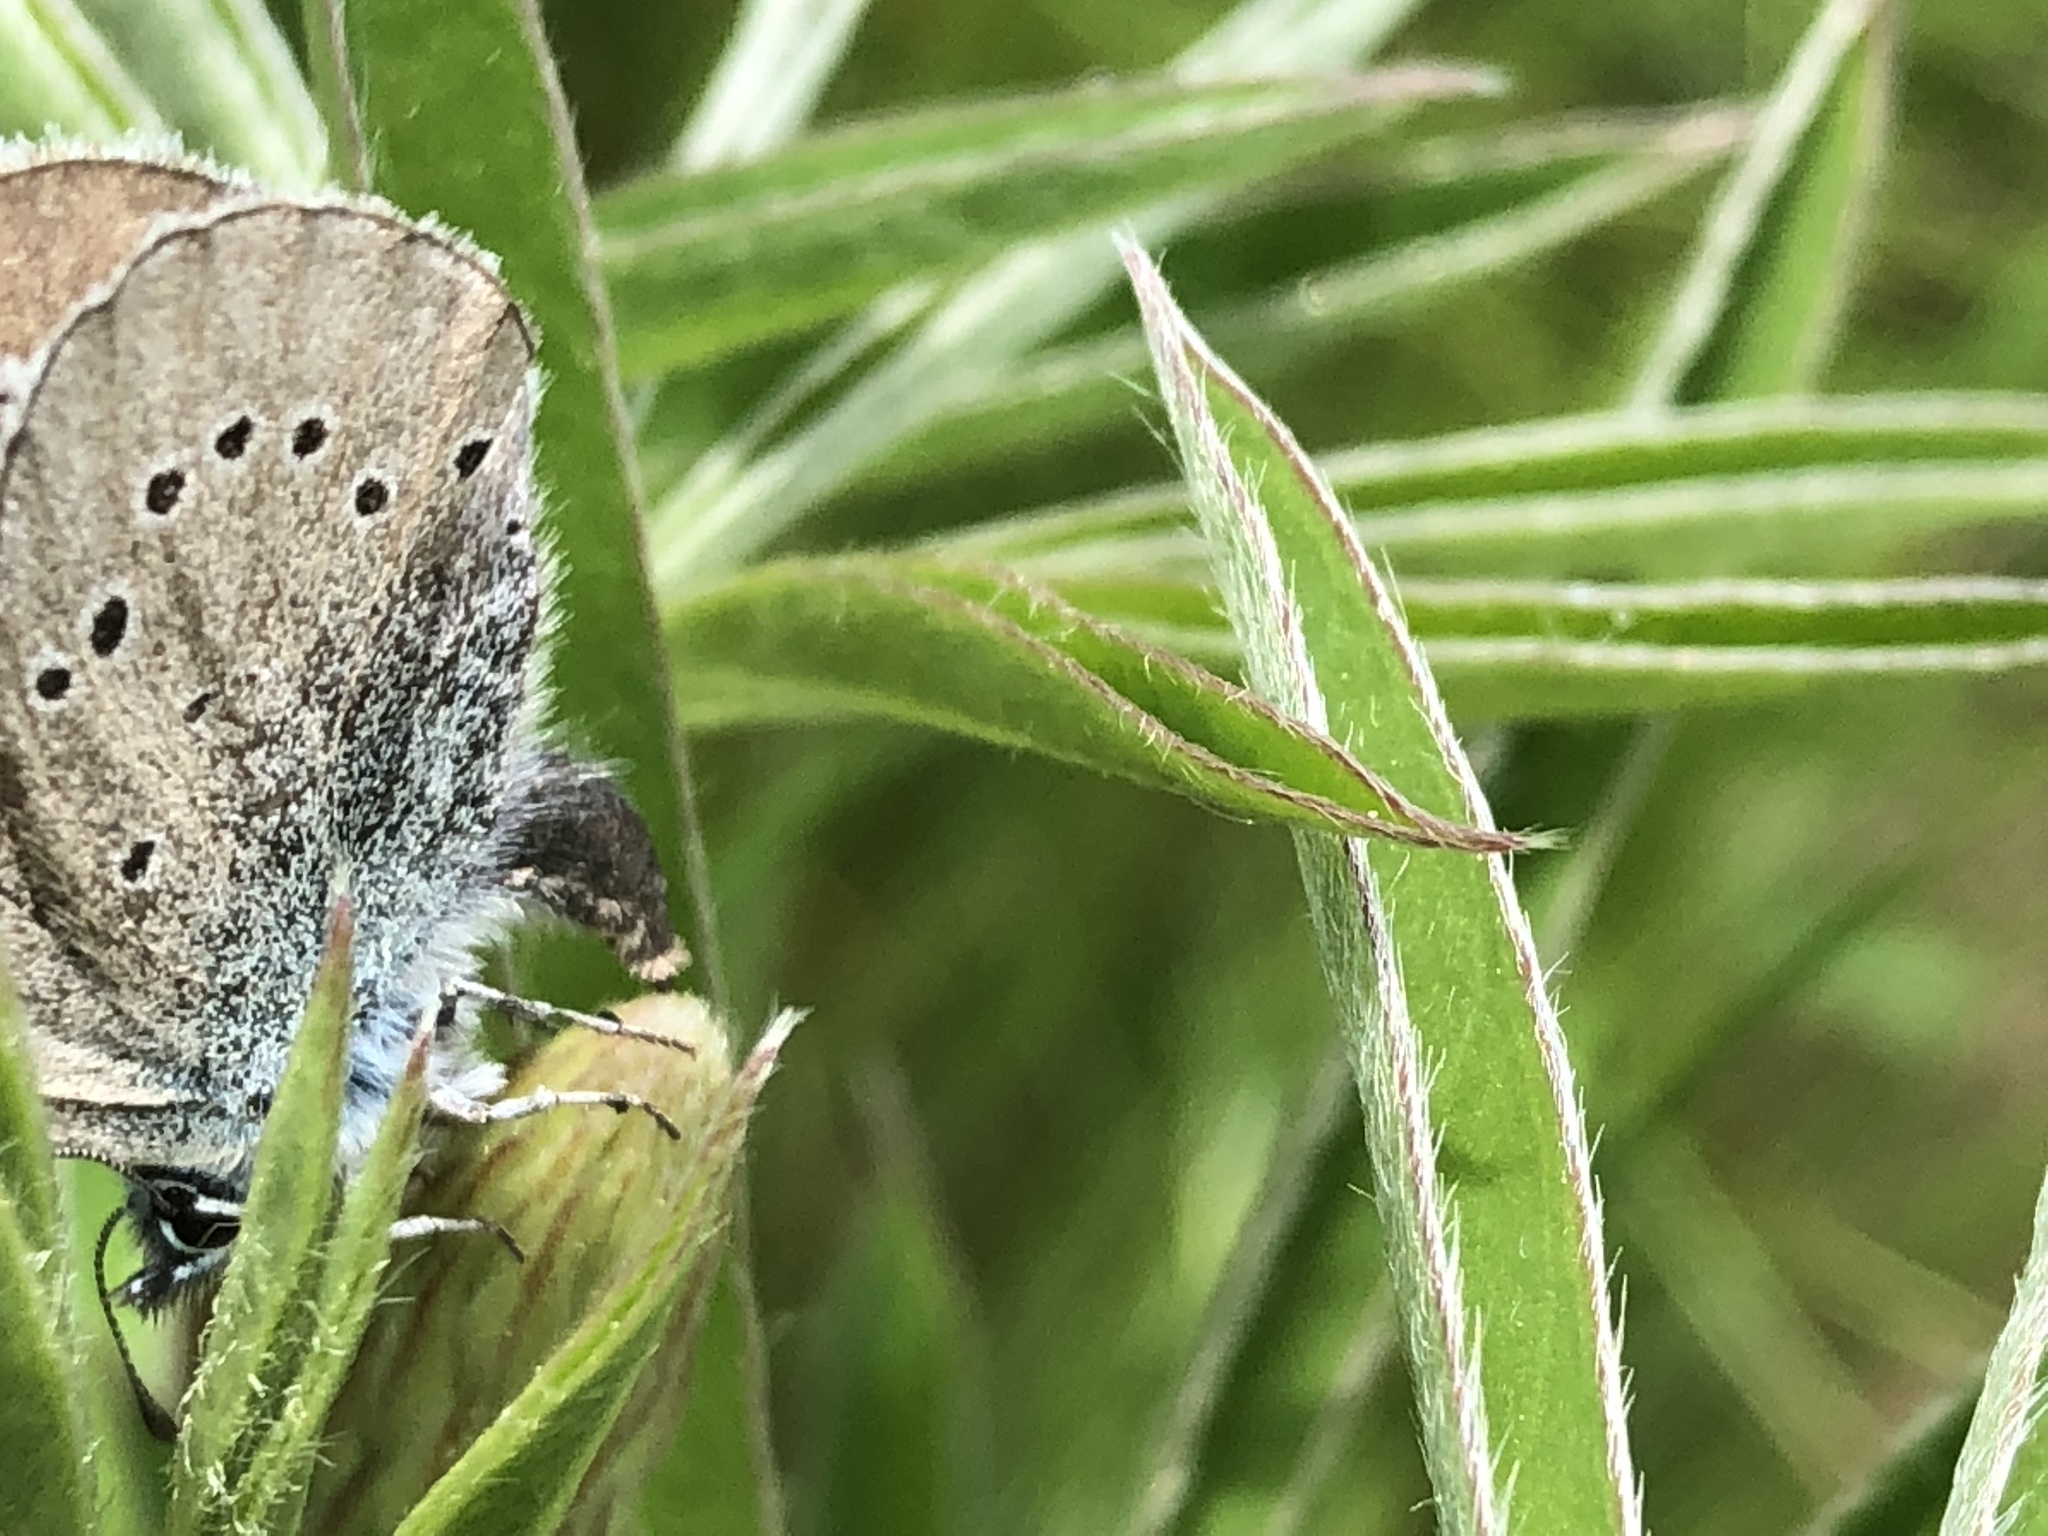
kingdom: Animalia
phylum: Arthropoda
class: Insecta
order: Lepidoptera
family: Lycaenidae
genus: Glaucopsyche
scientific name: Glaucopsyche lygdamus
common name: Silvery blue
